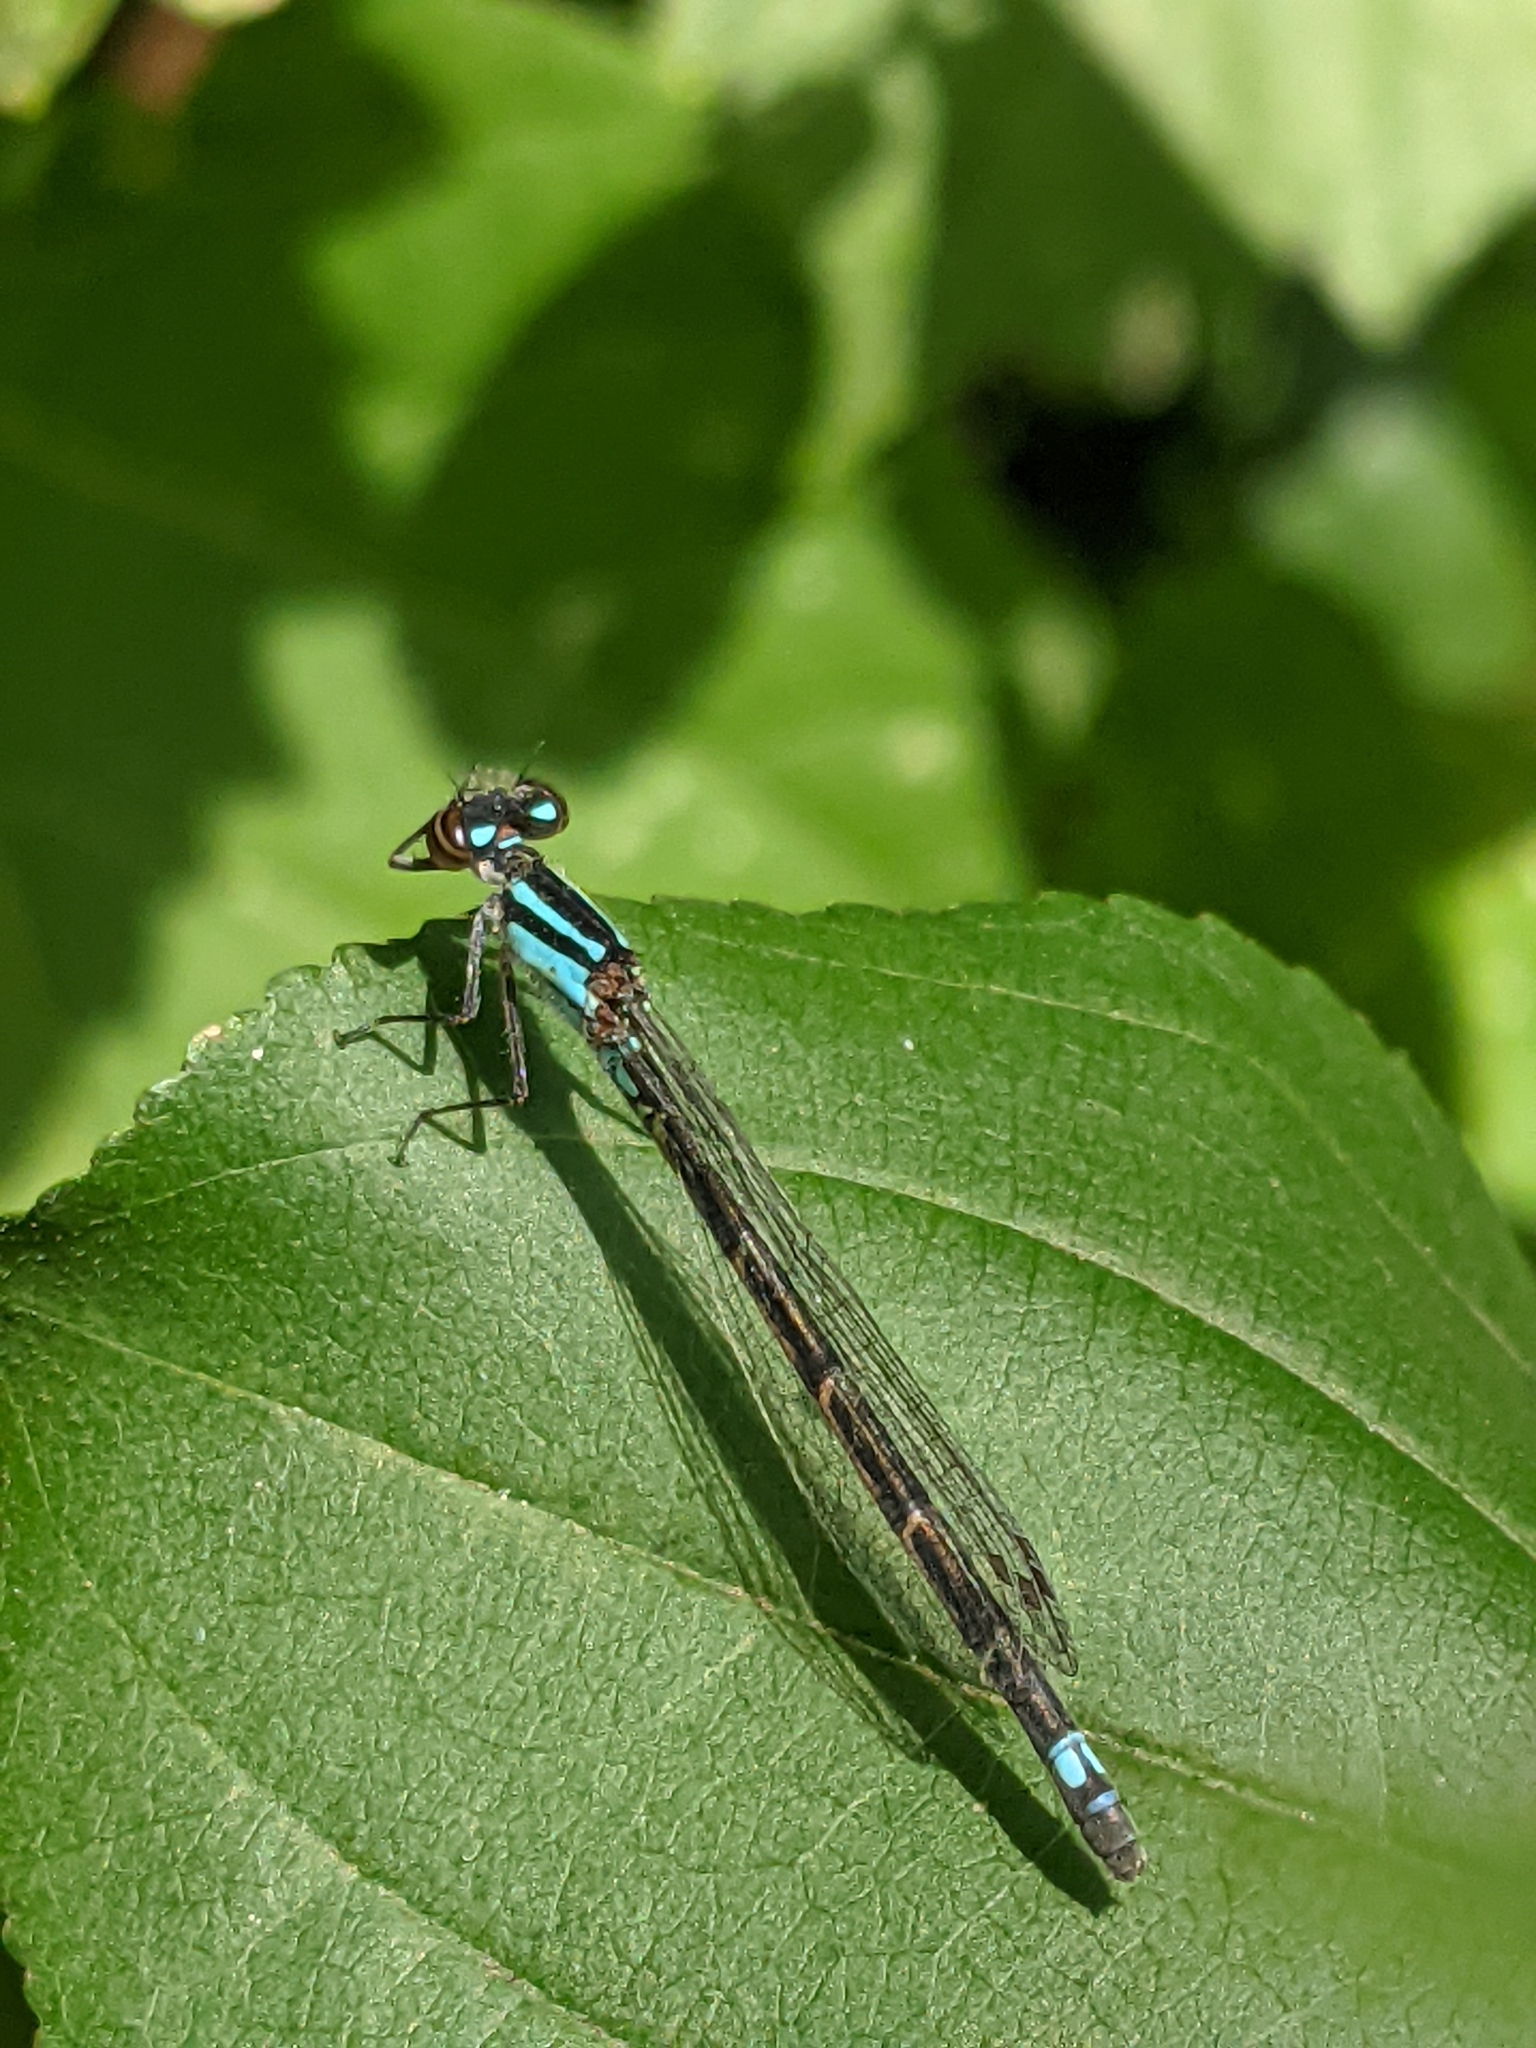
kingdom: Animalia
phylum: Arthropoda
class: Insecta
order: Odonata
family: Coenagrionidae
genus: Enallagma
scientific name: Enallagma geminatum
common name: Skimming bluet
